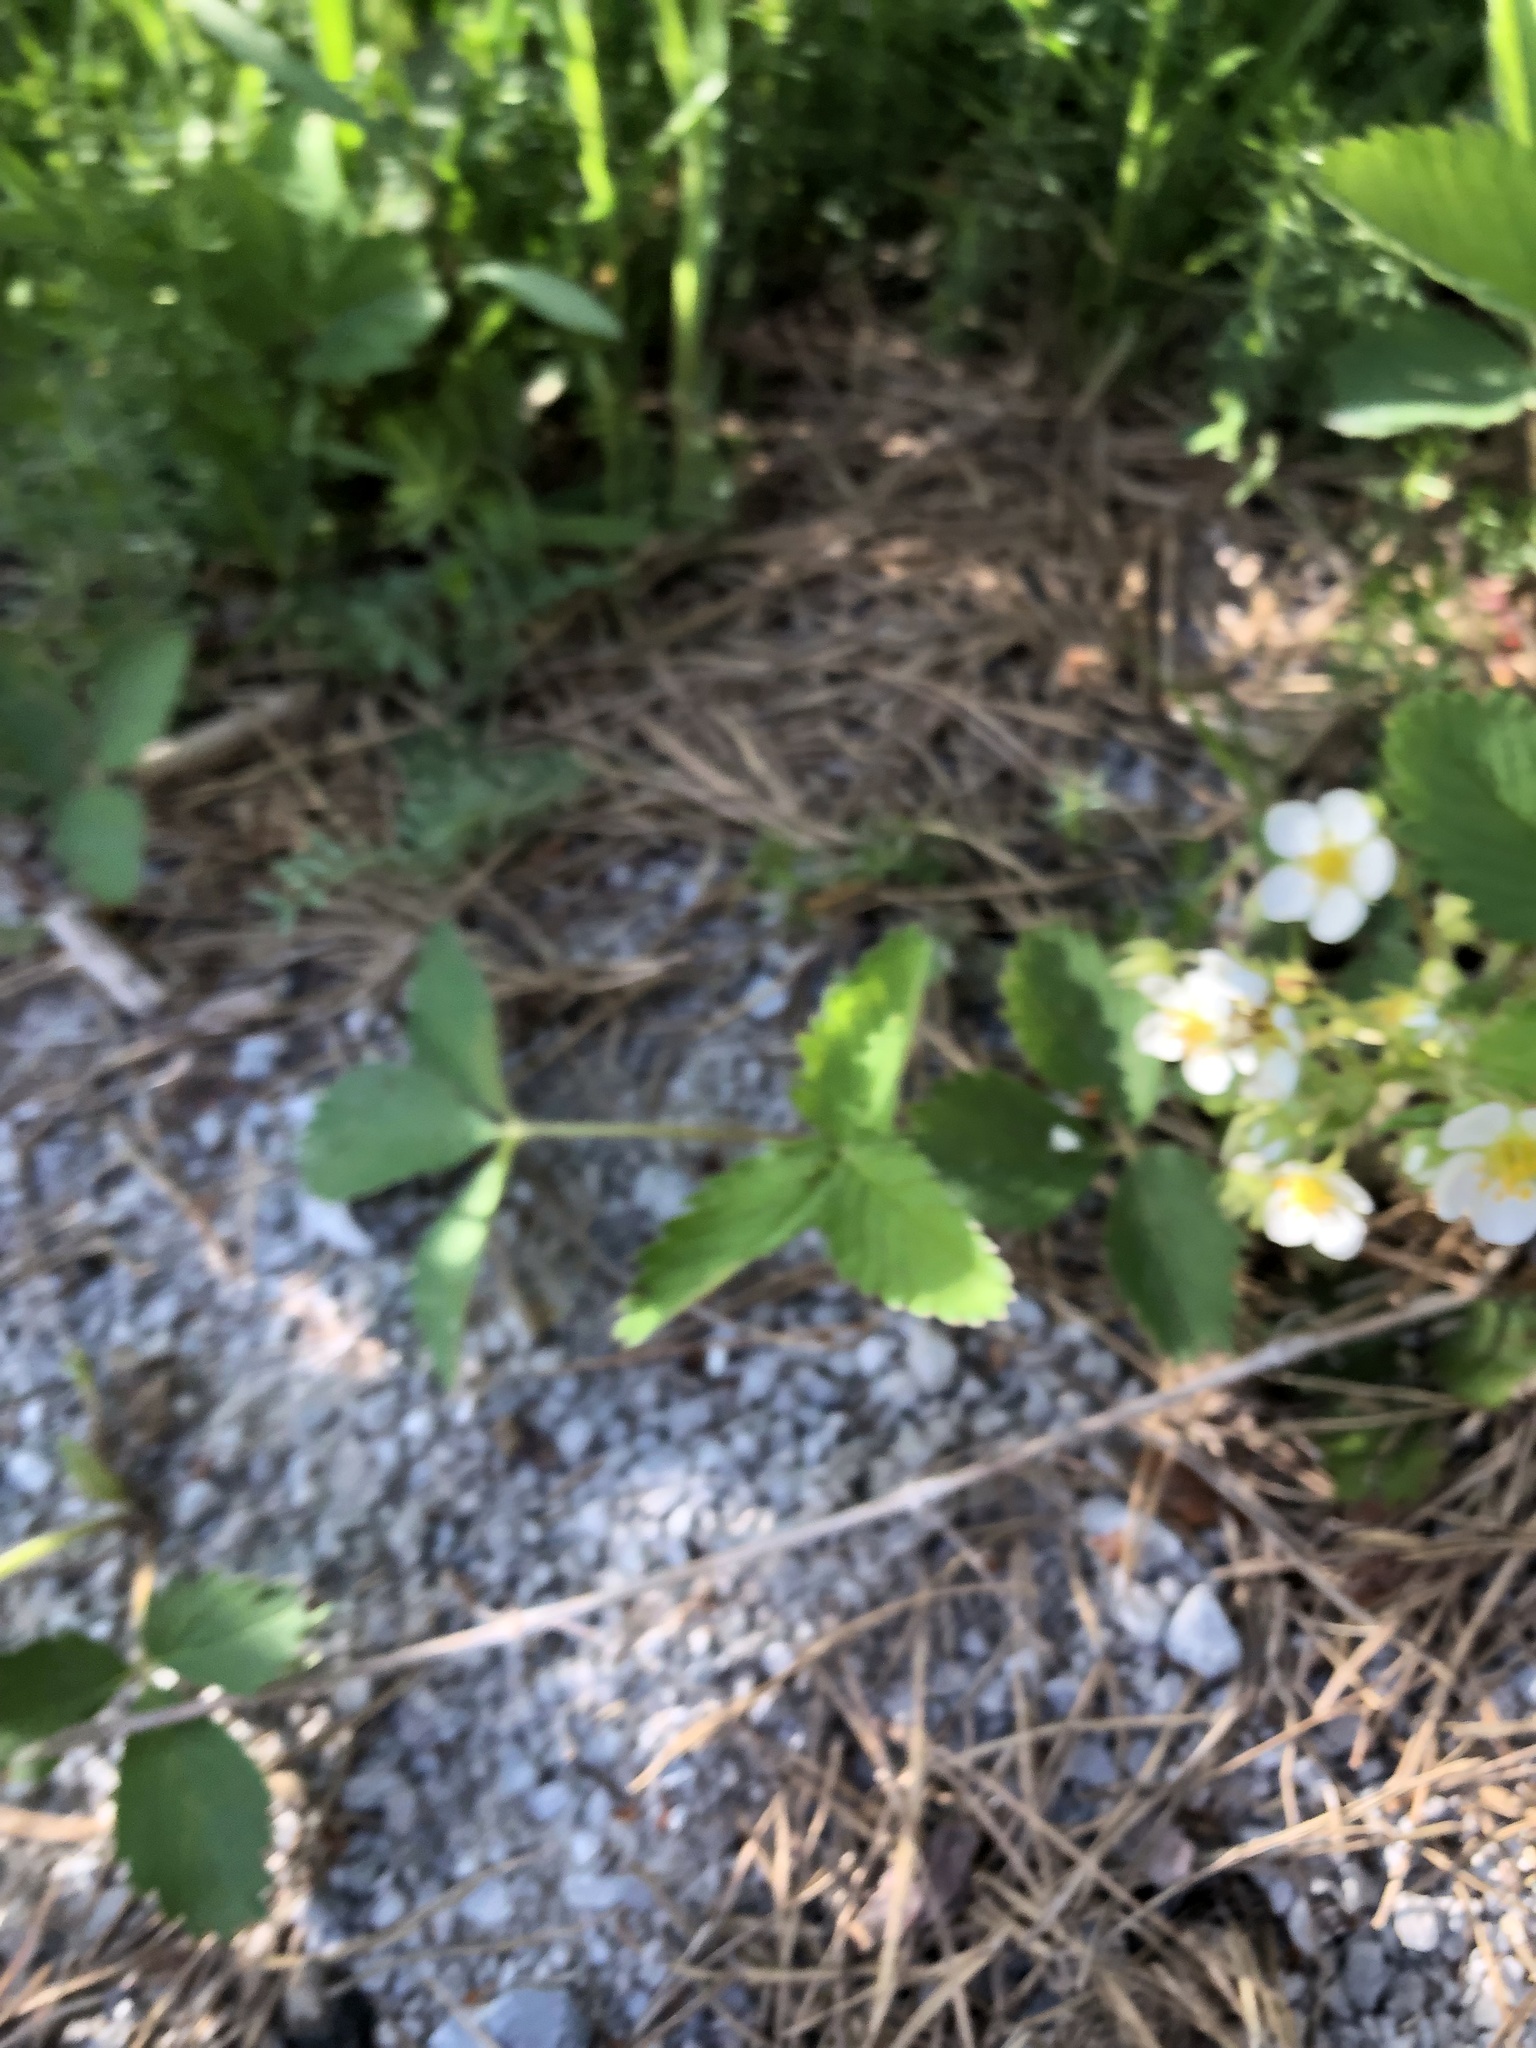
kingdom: Plantae
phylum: Tracheophyta
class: Magnoliopsida
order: Rosales
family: Rosaceae
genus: Fragaria
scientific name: Fragaria virginiana
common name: Thickleaved wild strawberry
